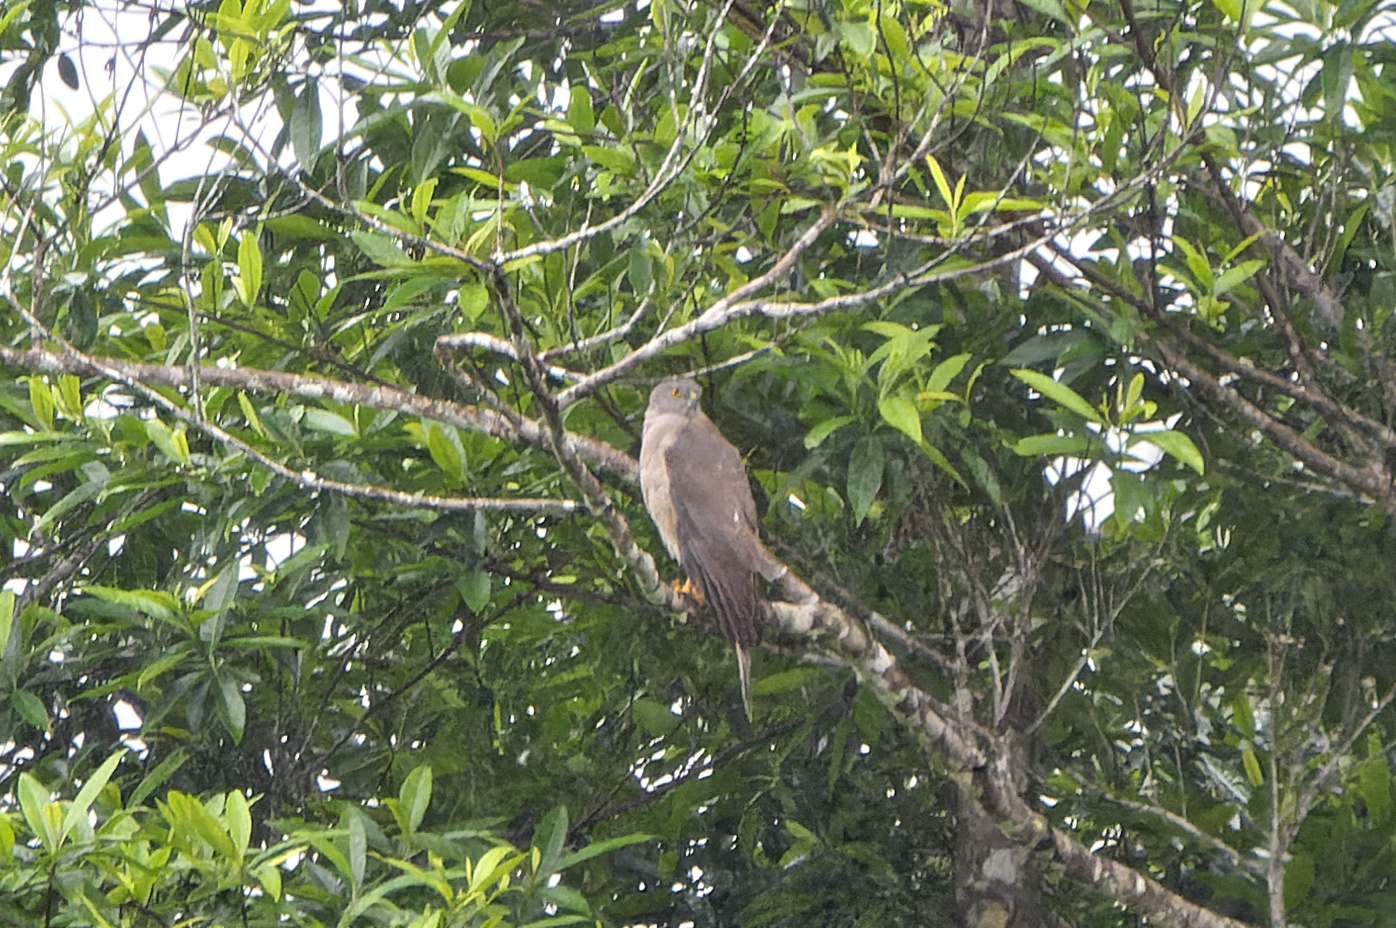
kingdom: Animalia
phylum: Chordata
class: Aves
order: Accipitriformes
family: Accipitridae
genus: Accipiter
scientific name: Accipiter fasciatus
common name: Brown goshawk
